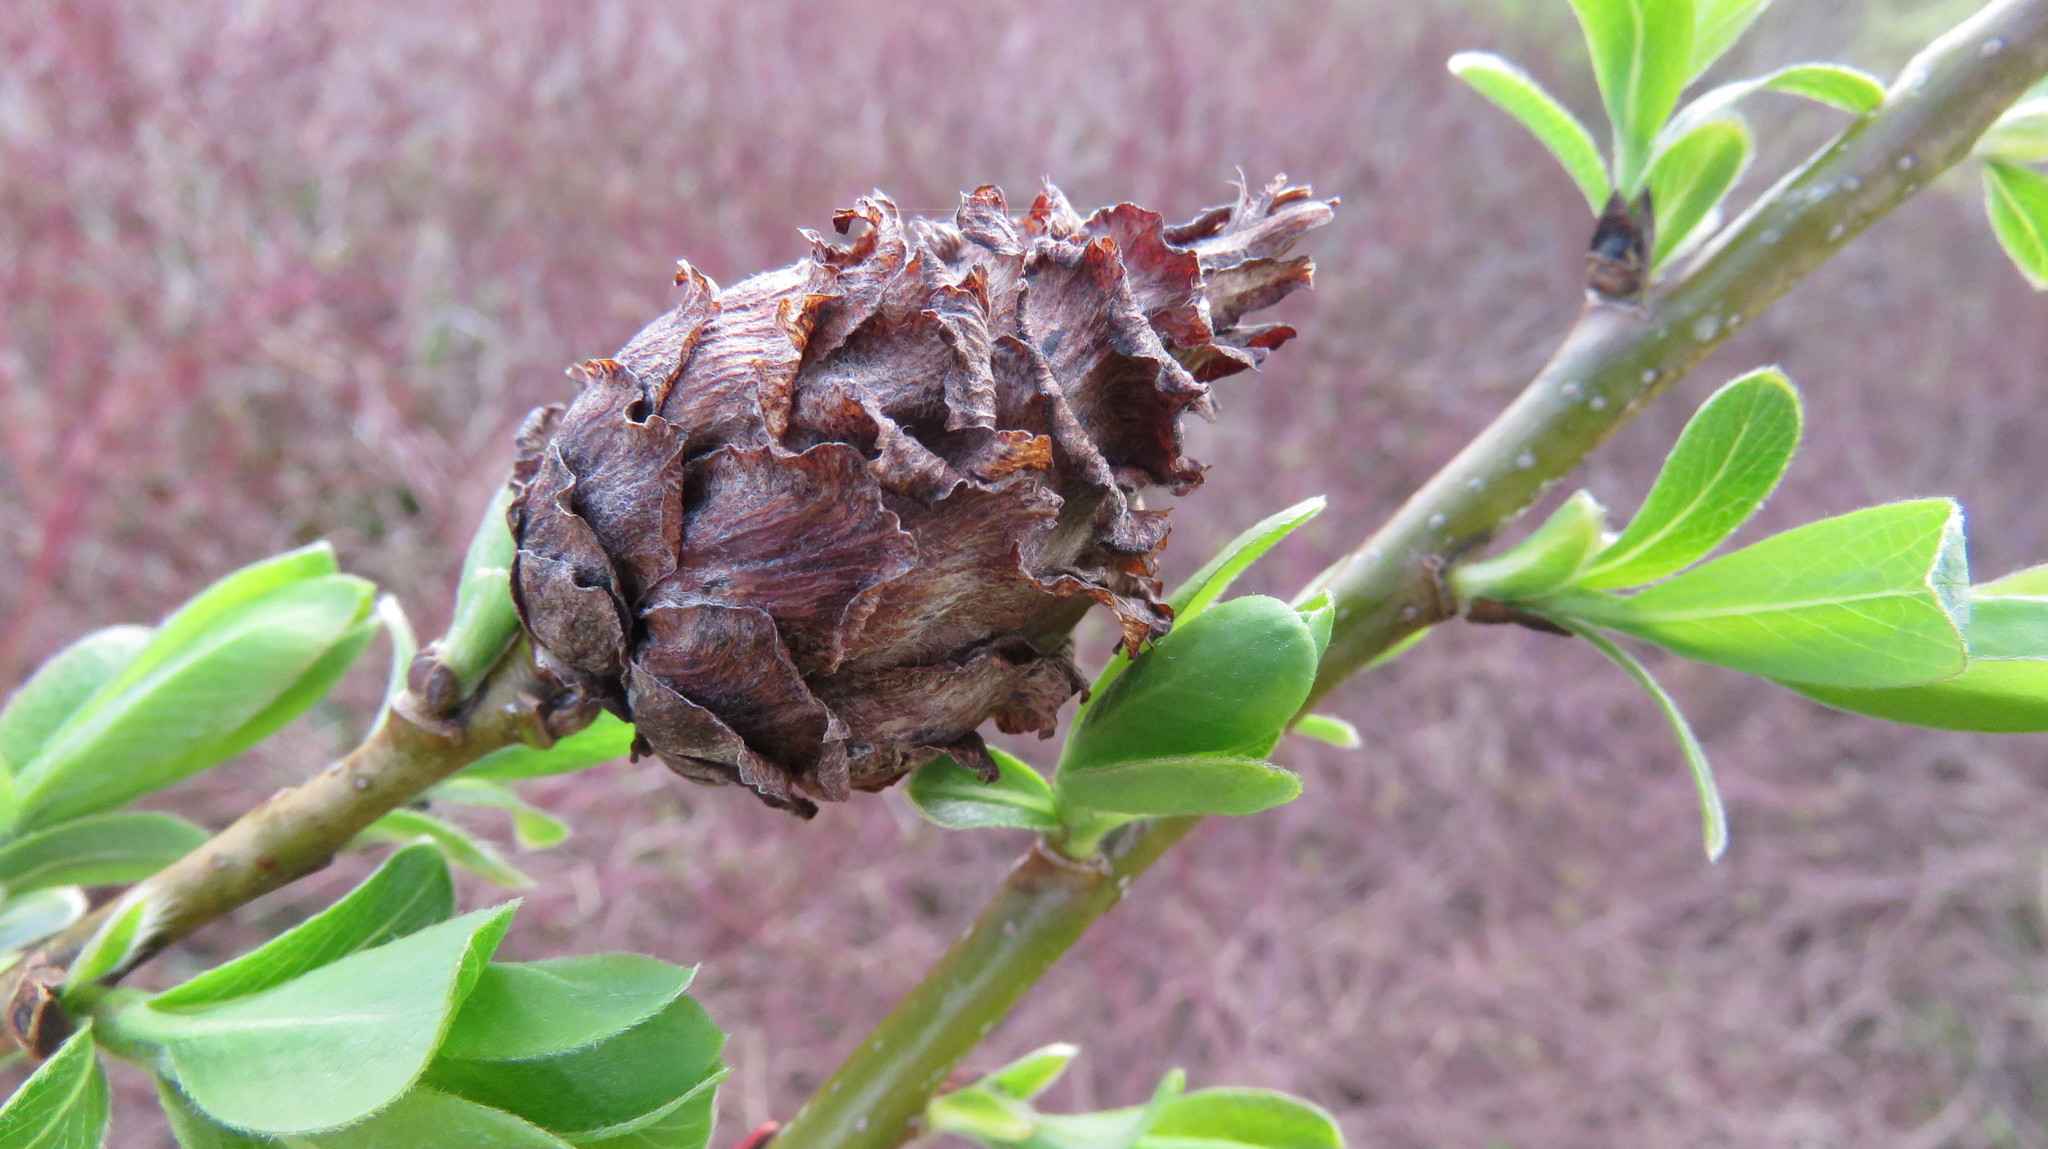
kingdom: Animalia
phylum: Arthropoda
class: Insecta
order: Diptera
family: Cecidomyiidae
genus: Rabdophaga
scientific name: Rabdophaga strobiloides
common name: Willow pinecone gall midge
